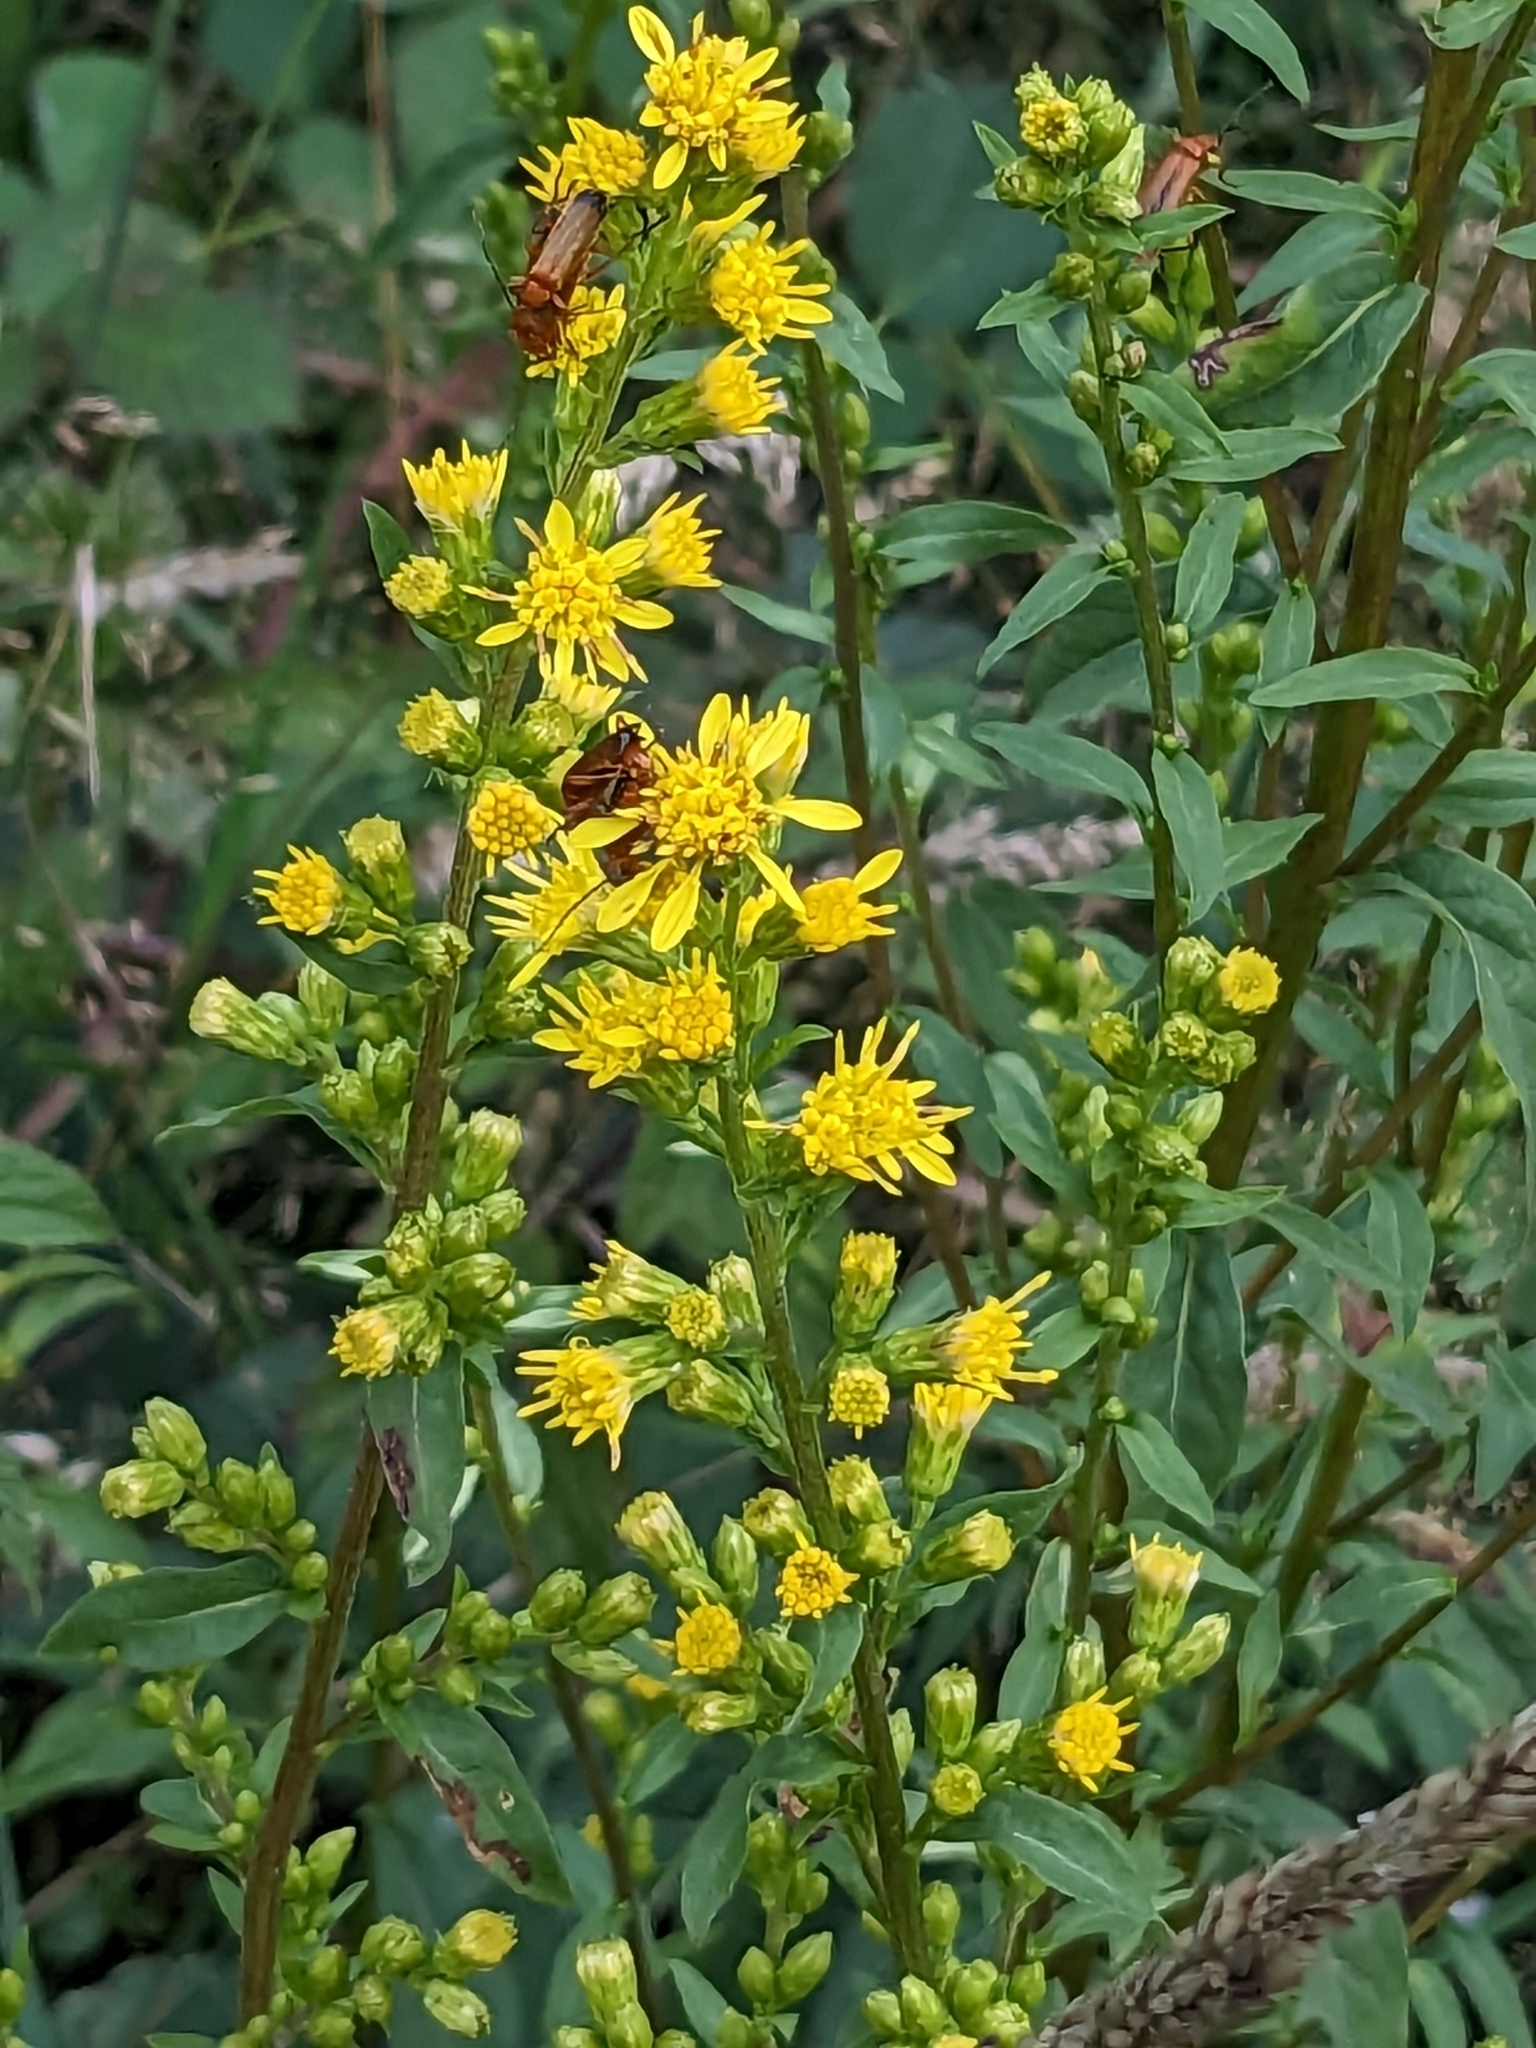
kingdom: Plantae
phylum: Tracheophyta
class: Magnoliopsida
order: Asterales
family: Asteraceae
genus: Solidago
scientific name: Solidago virgaurea
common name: Goldenrod
